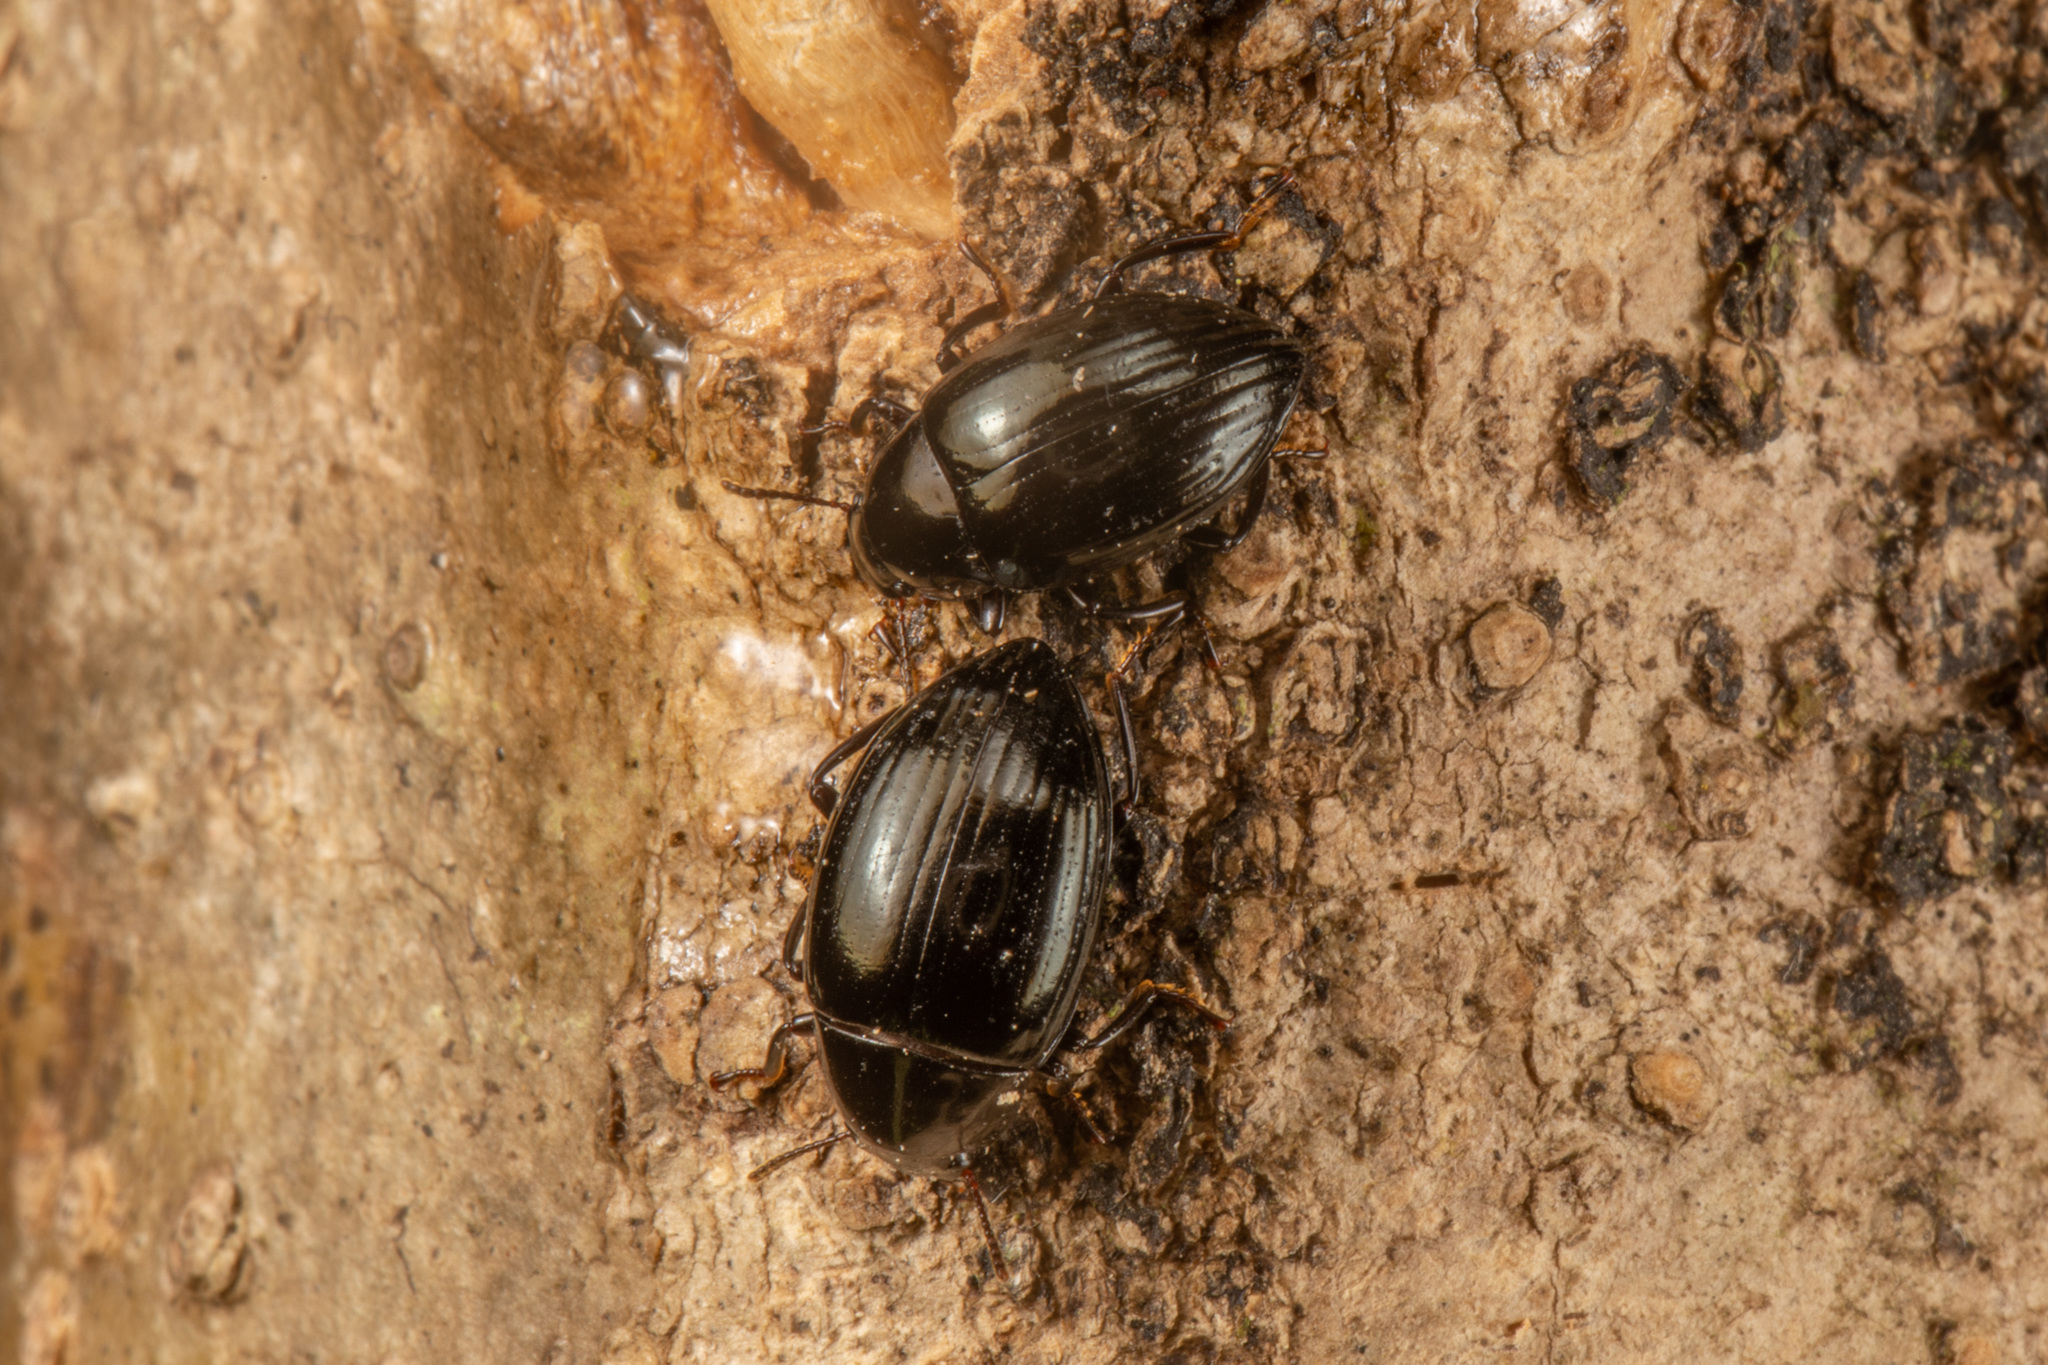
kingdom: Animalia
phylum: Arthropoda
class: Insecta
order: Coleoptera
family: Tenebrionidae
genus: Chrysopeplus
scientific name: Chrysopeplus expolitus
